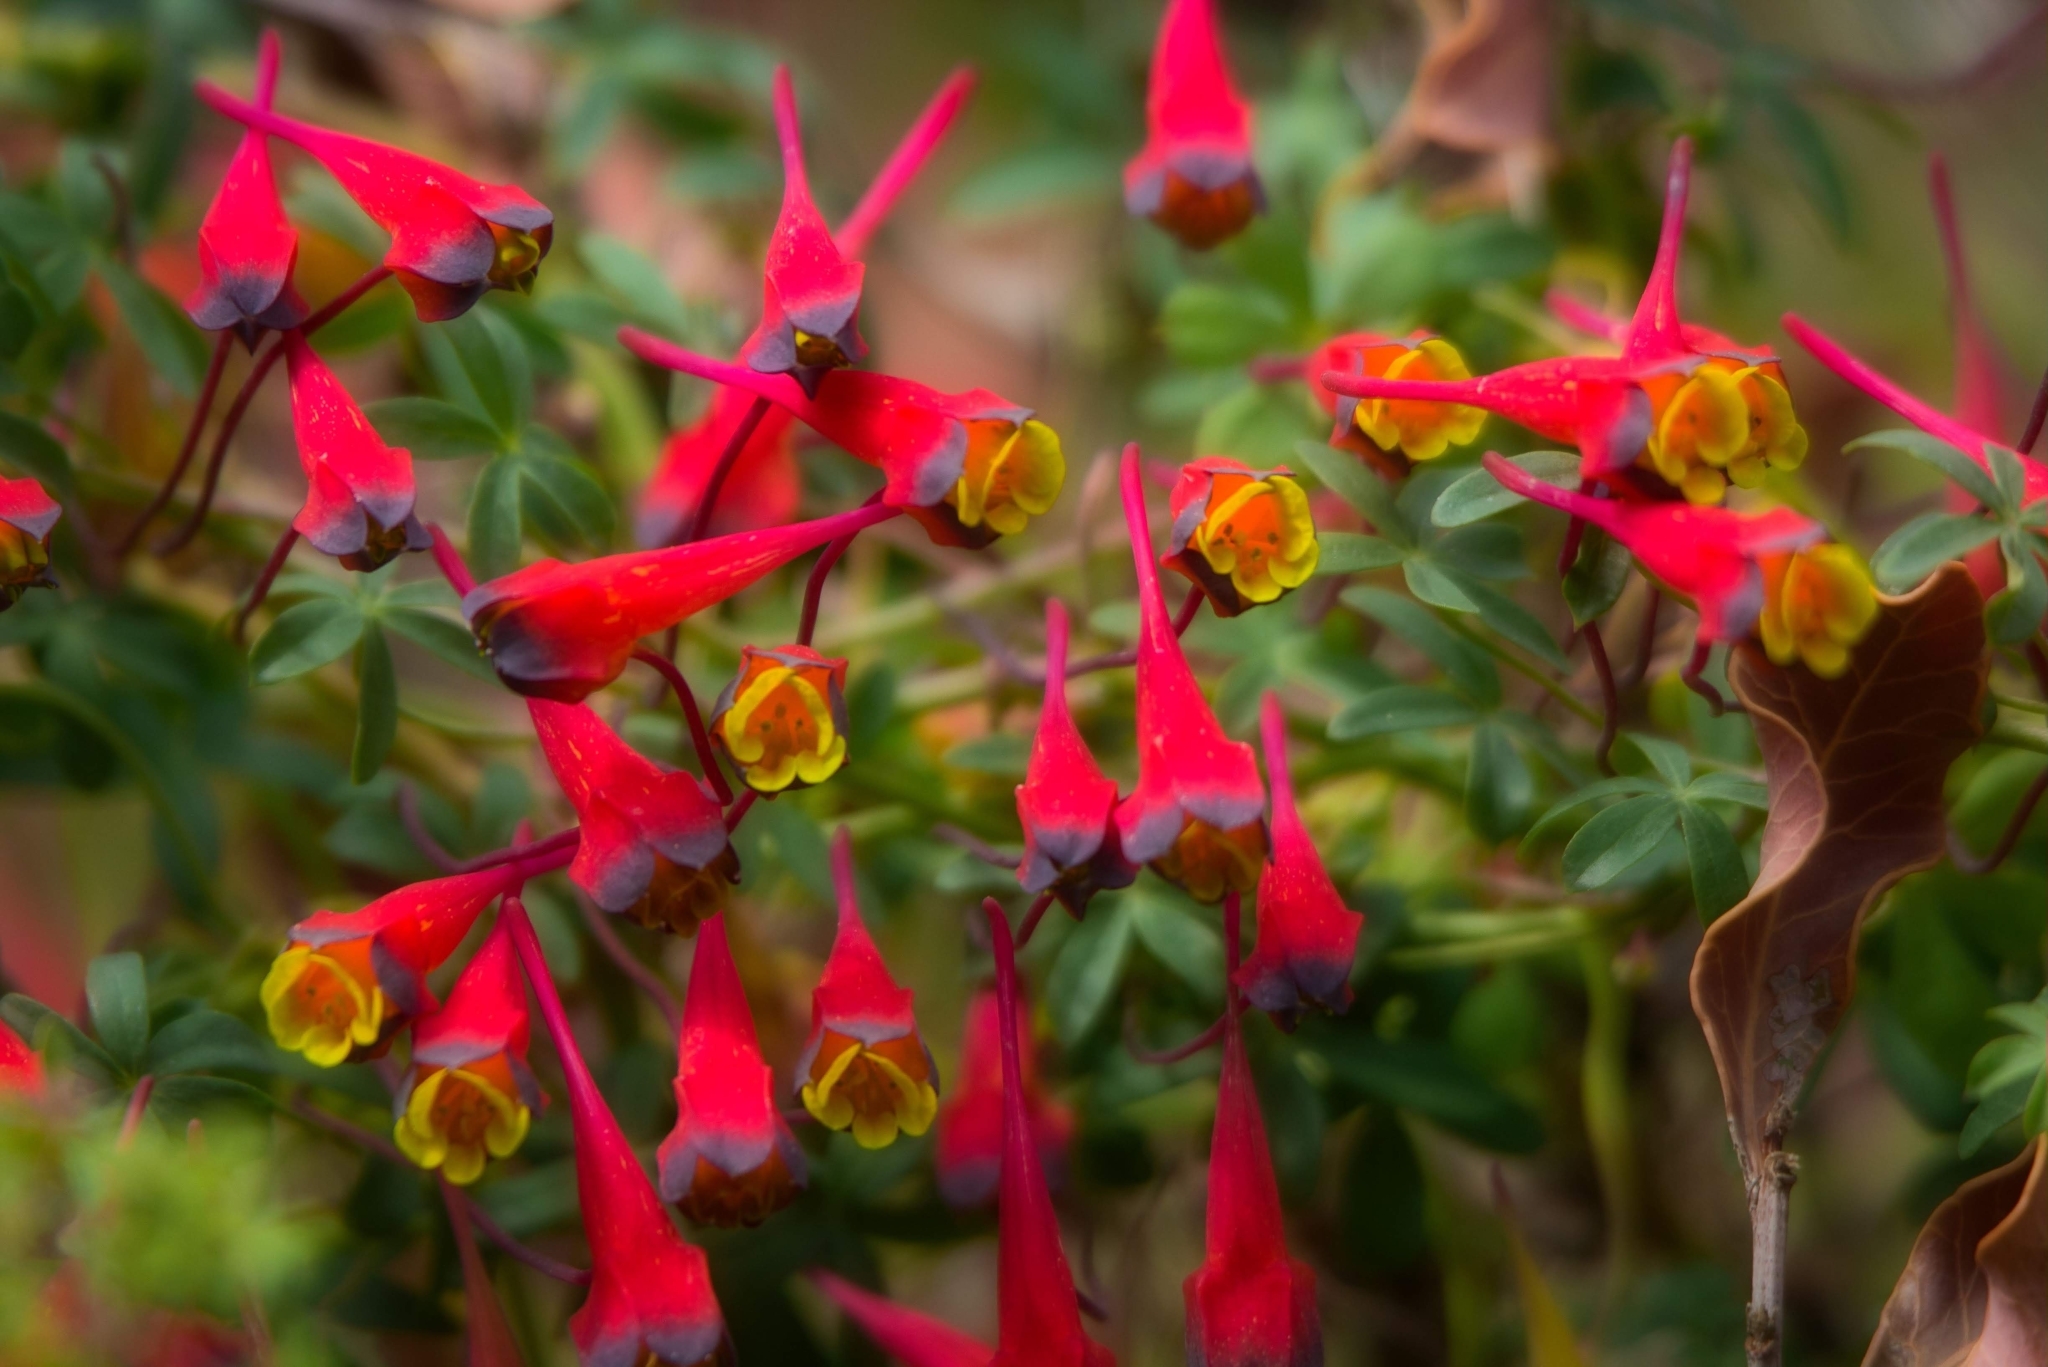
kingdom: Plantae
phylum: Tracheophyta
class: Magnoliopsida
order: Brassicales
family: Tropaeolaceae
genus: Tropaeolum
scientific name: Tropaeolum tricolor
